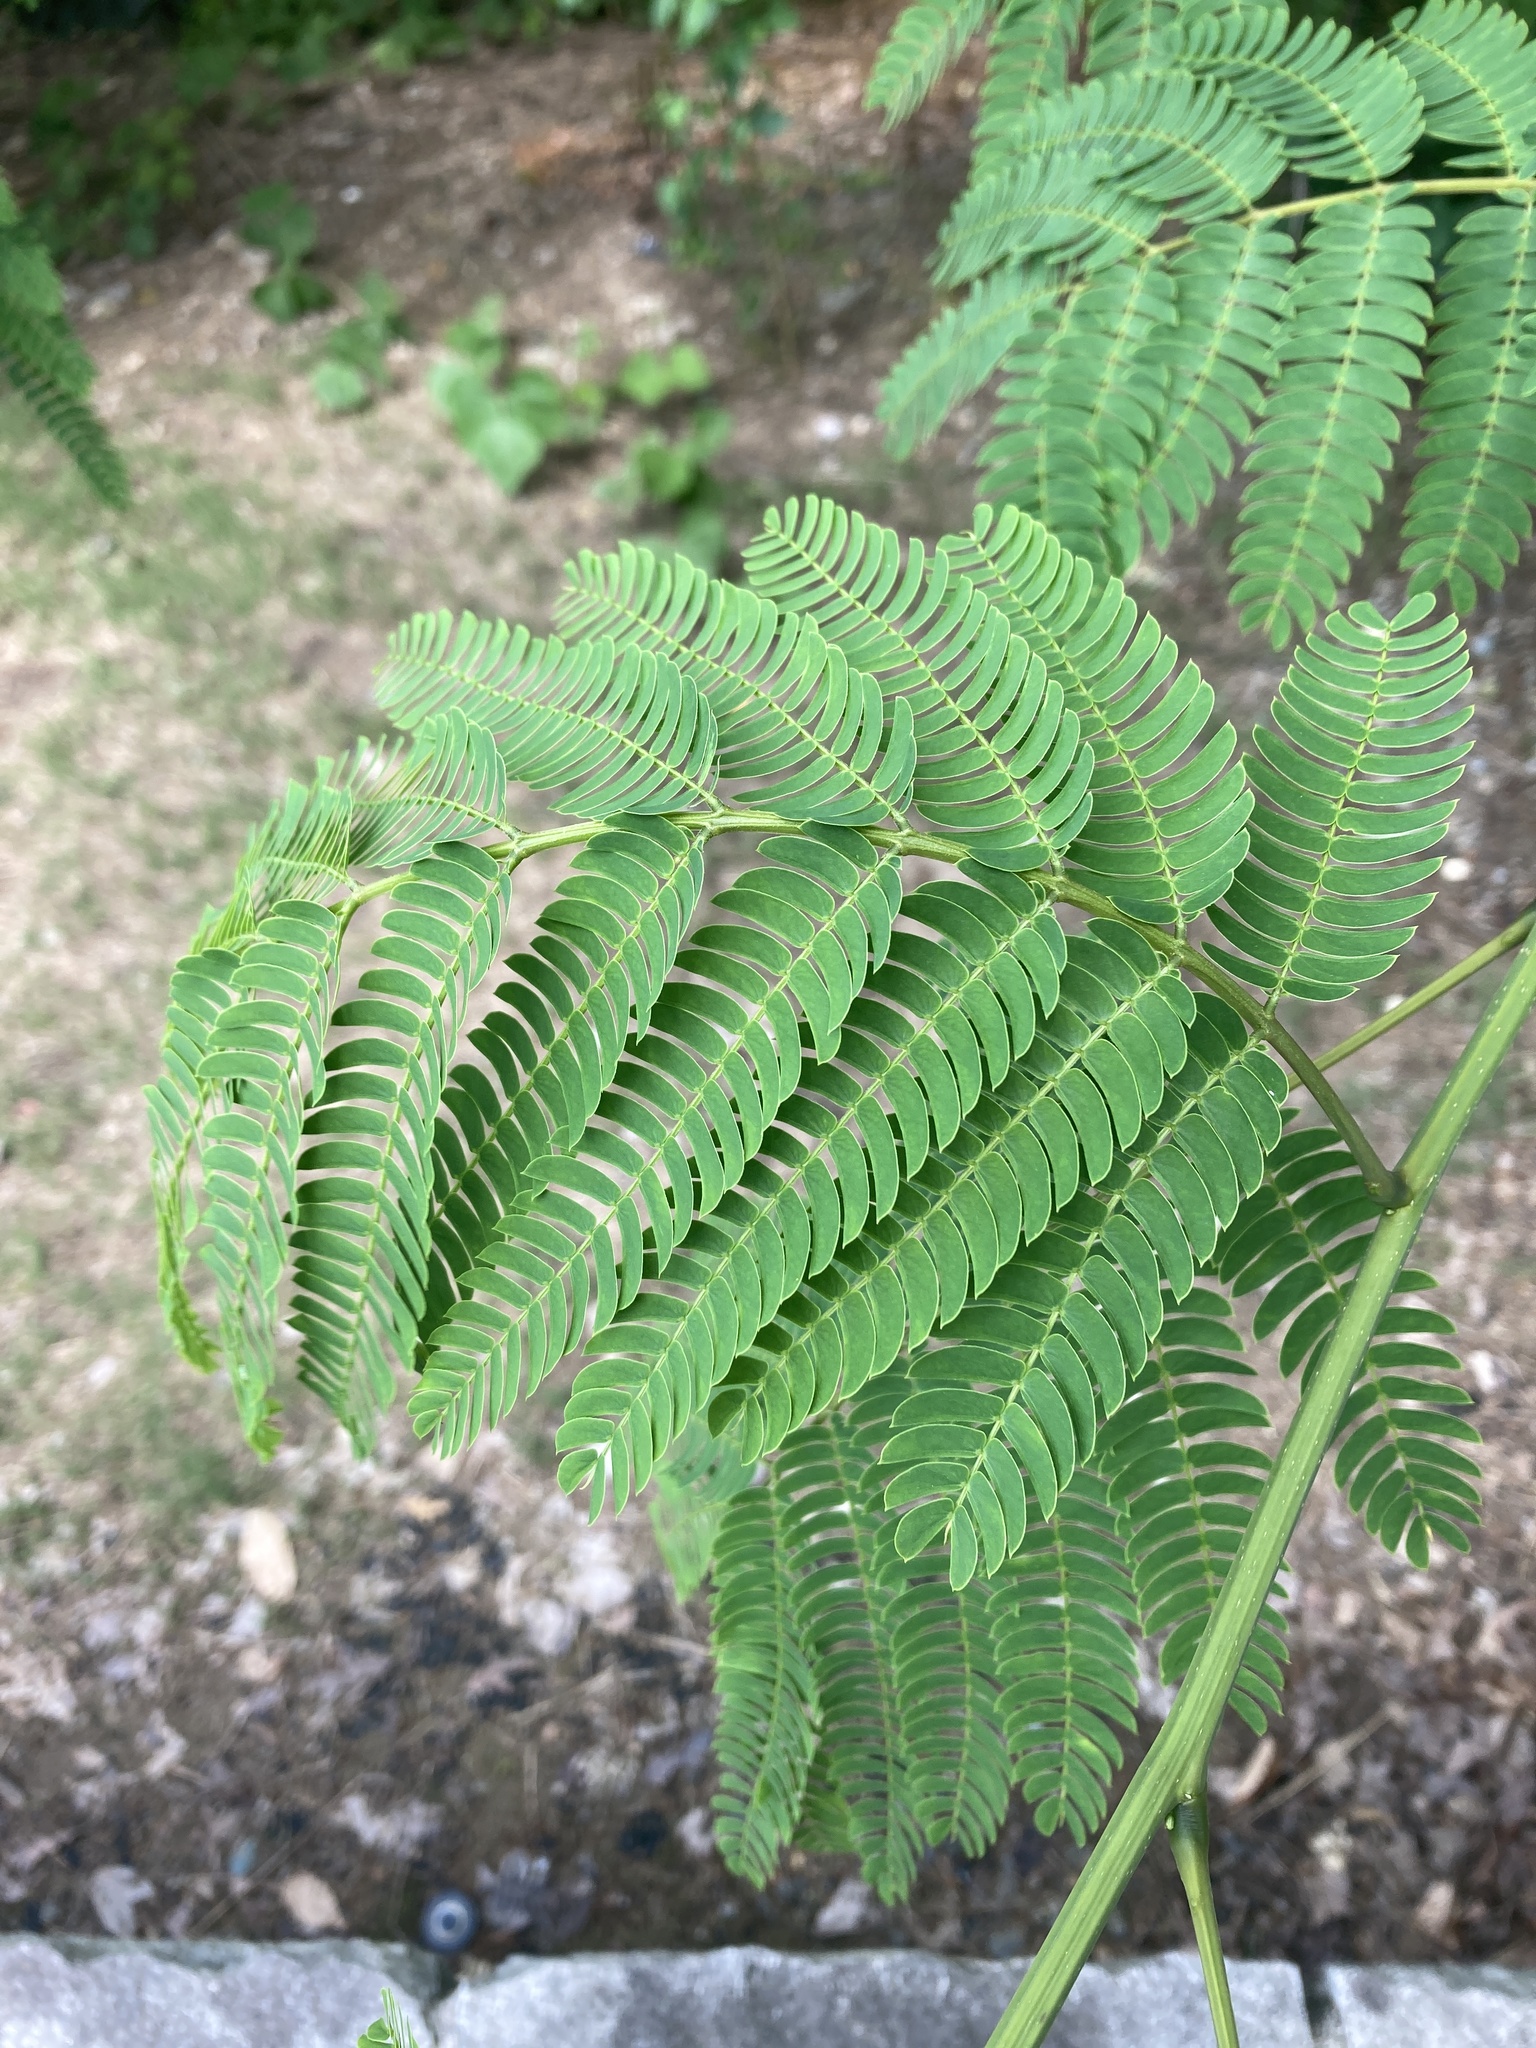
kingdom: Plantae
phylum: Tracheophyta
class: Magnoliopsida
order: Fabales
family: Fabaceae
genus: Albizia
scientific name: Albizia julibrissin
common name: Silktree
